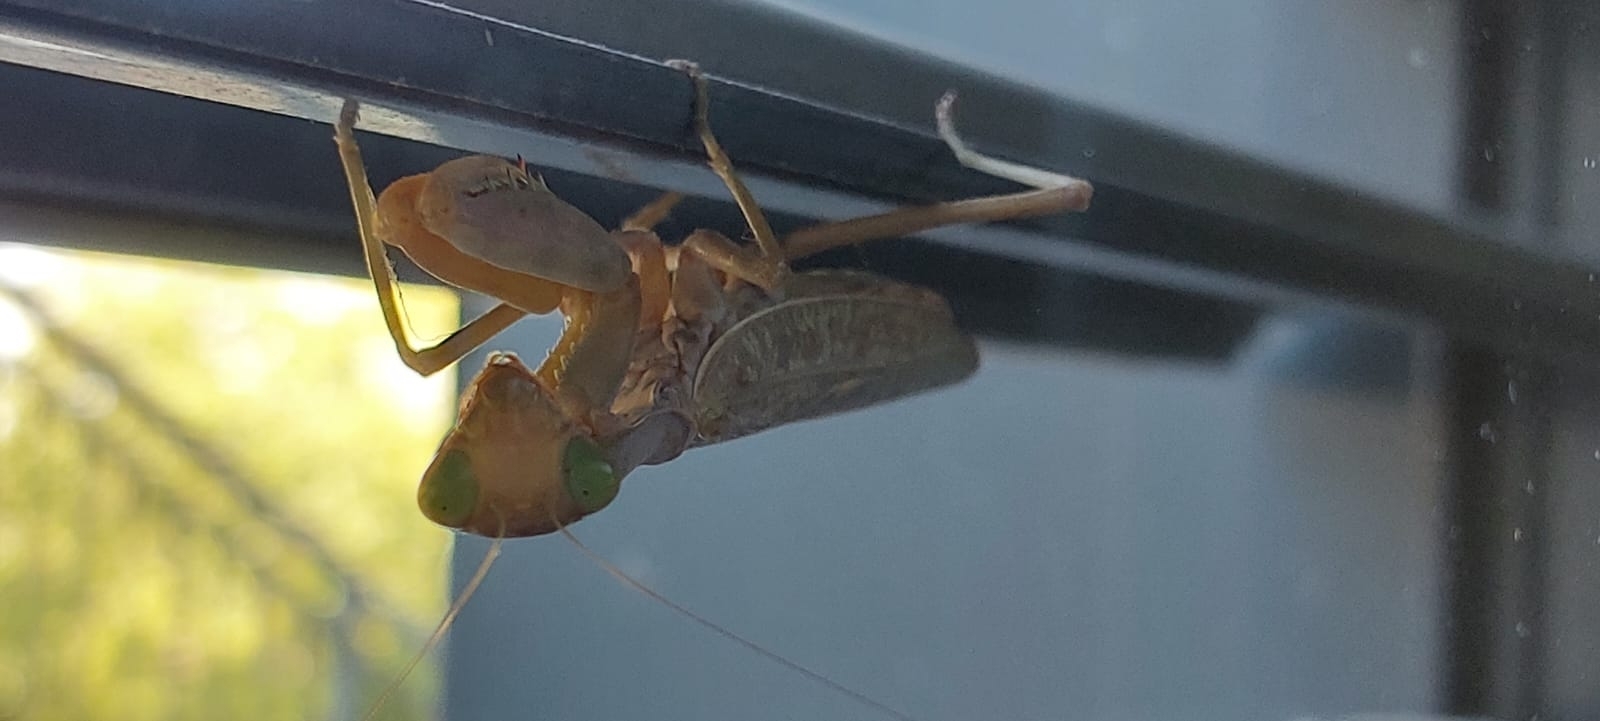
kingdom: Animalia
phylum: Arthropoda
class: Insecta
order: Mantodea
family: Mantidae
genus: Hierodula
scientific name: Hierodula transcaucasica
